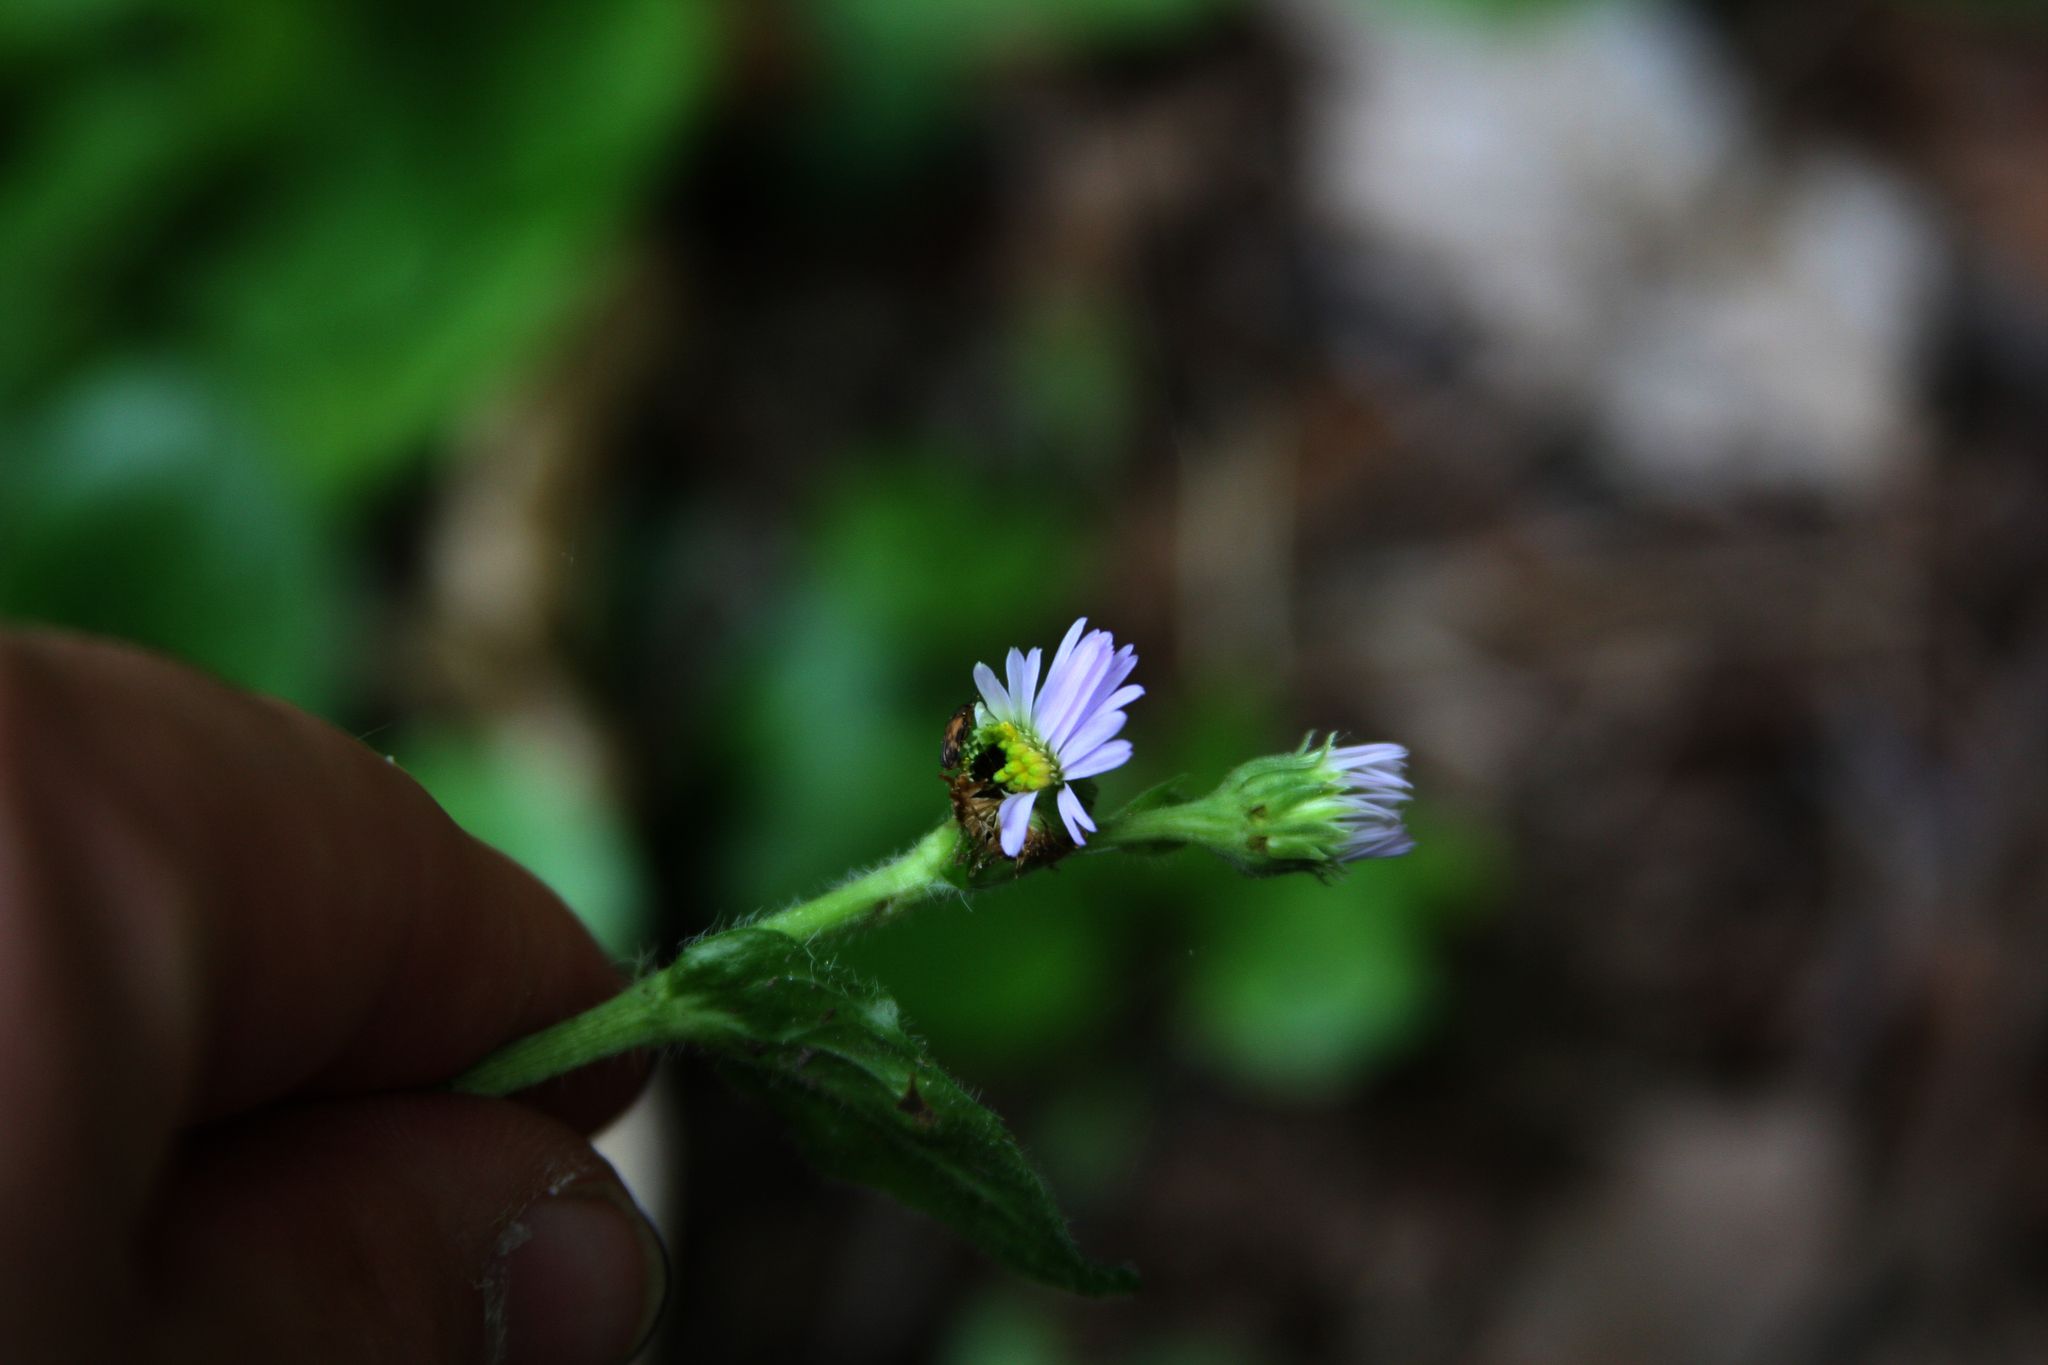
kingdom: Plantae
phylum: Tracheophyta
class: Magnoliopsida
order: Asterales
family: Asteraceae
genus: Erigeron
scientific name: Erigeron pulchellus
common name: Hairy fleabane
